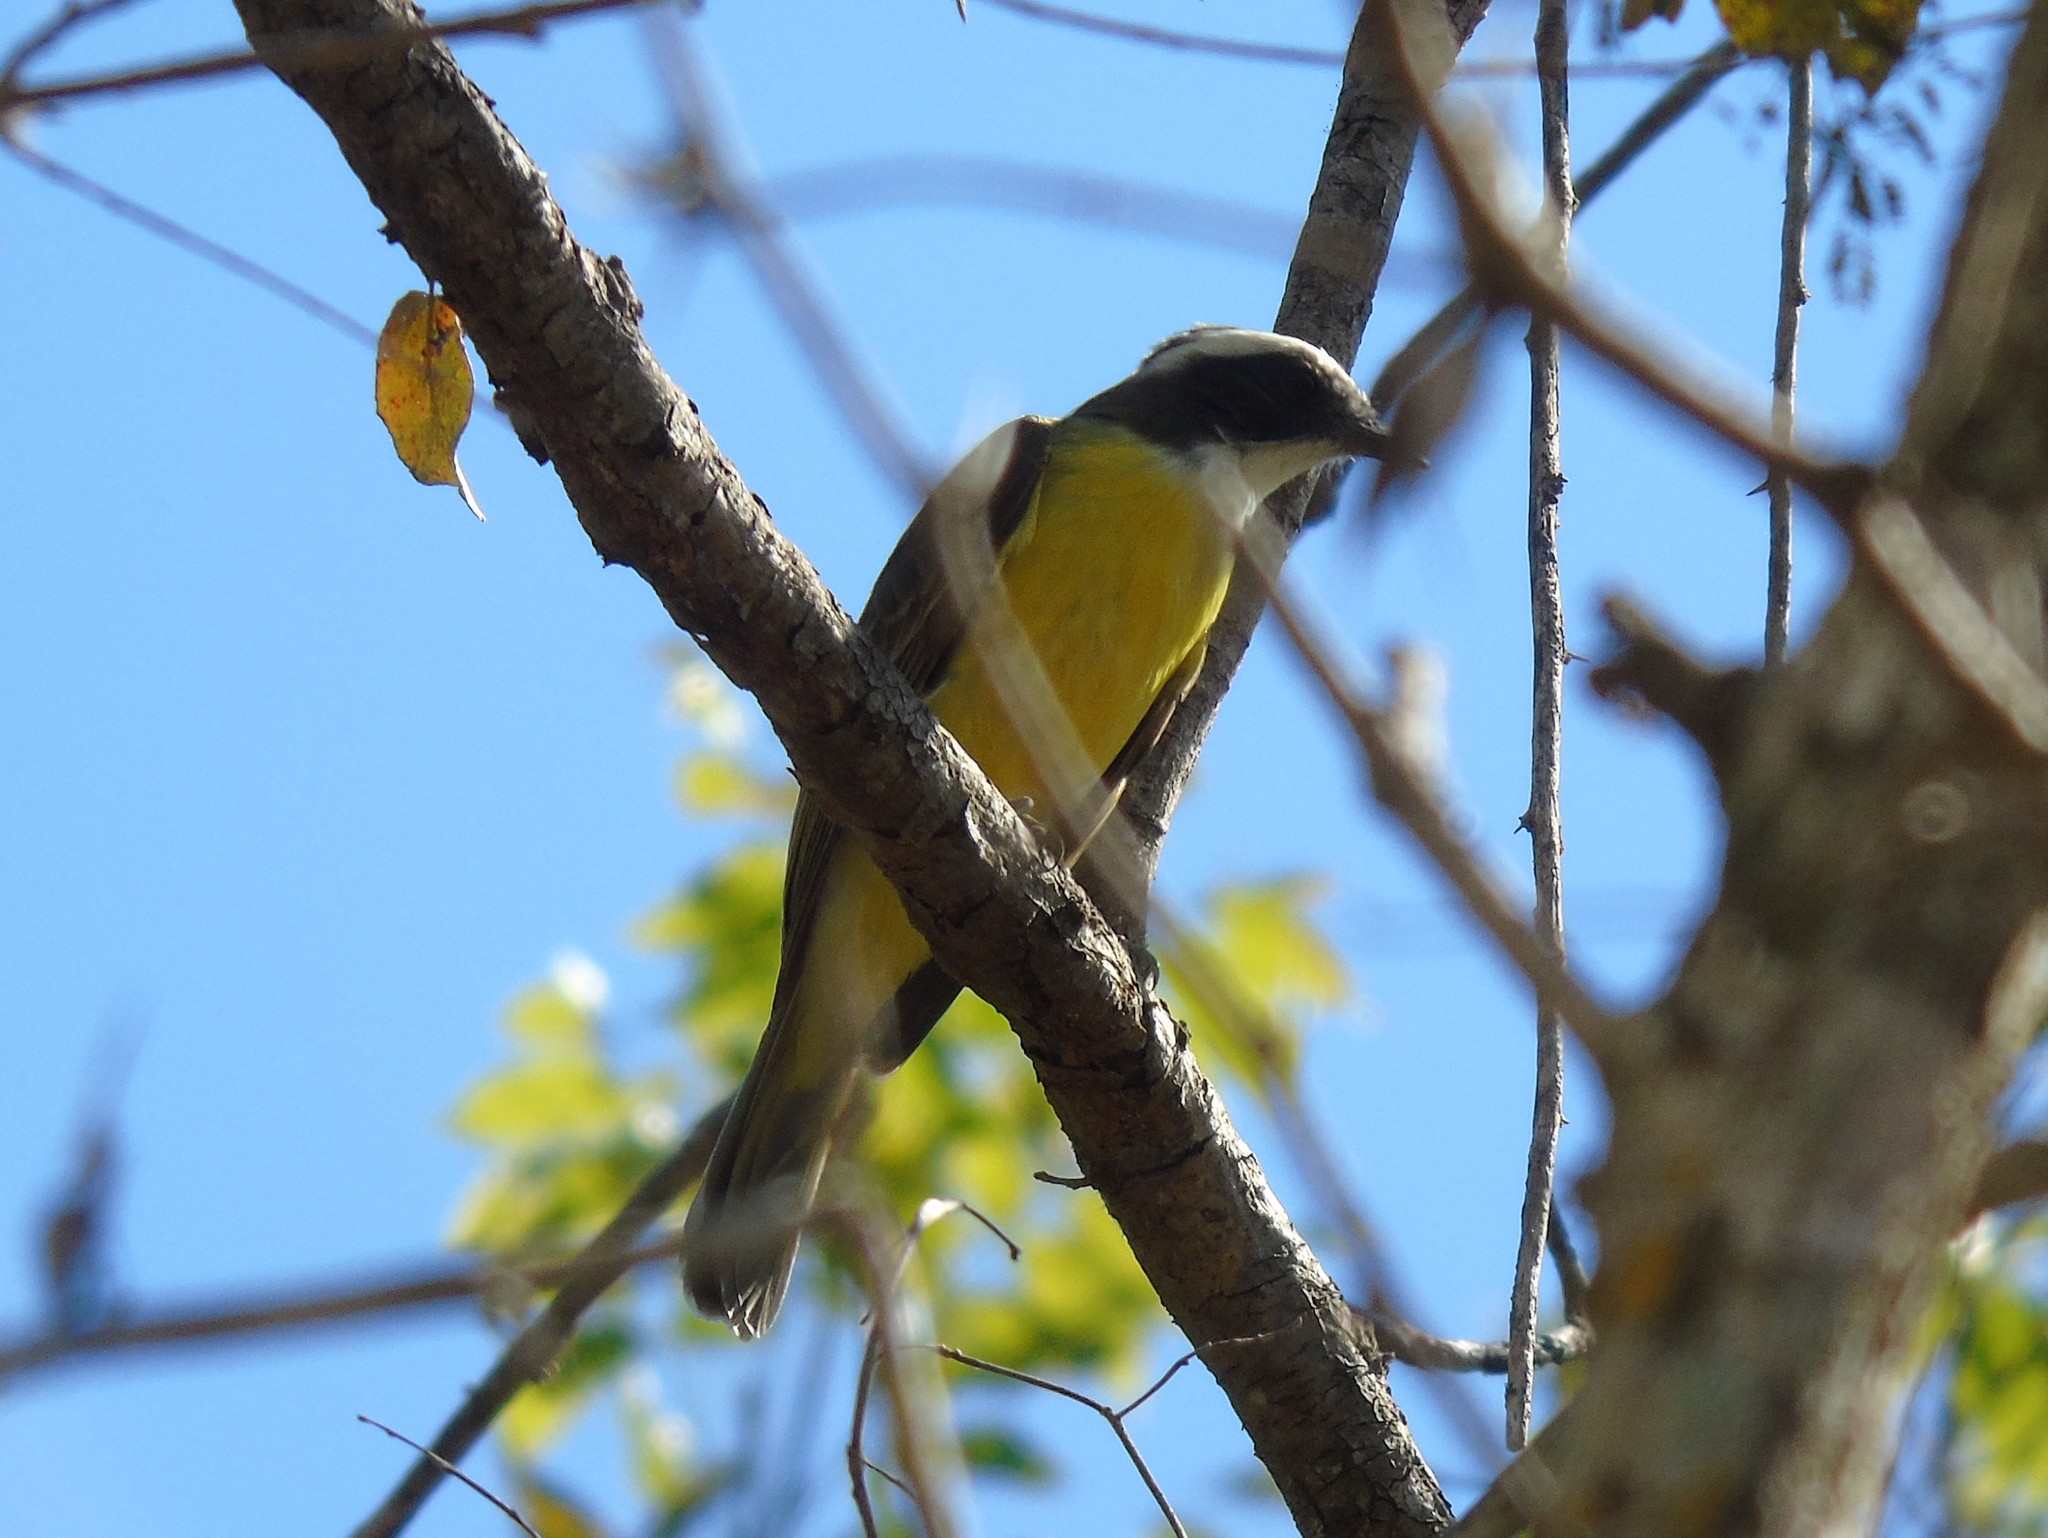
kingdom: Animalia
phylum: Chordata
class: Aves
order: Passeriformes
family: Tyrannidae
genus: Myiozetetes
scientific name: Myiozetetes similis
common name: Social flycatcher
